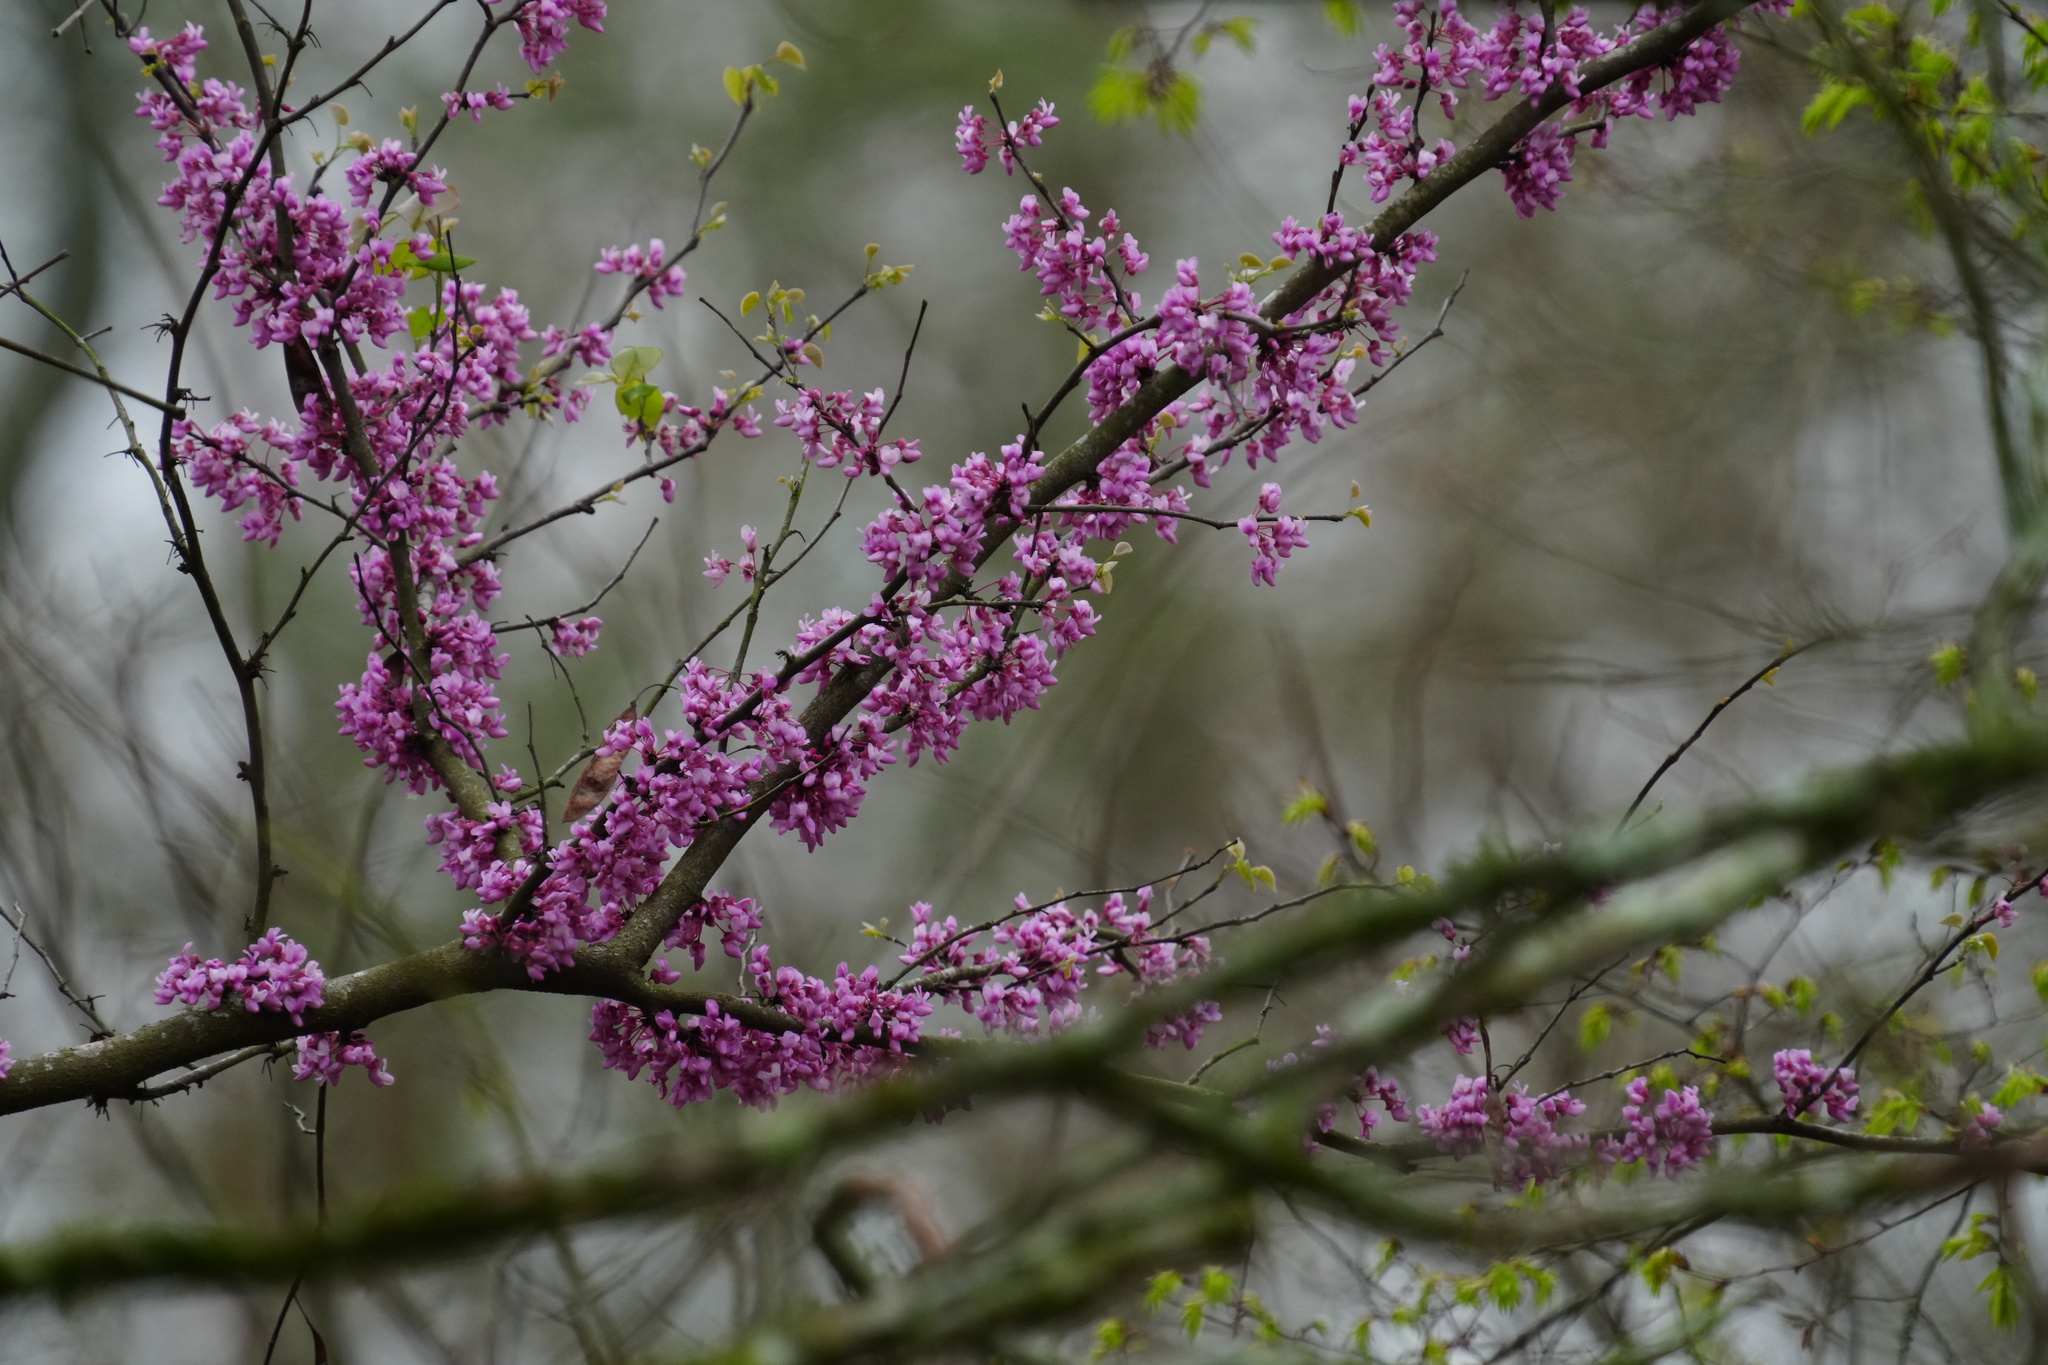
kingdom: Plantae
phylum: Tracheophyta
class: Magnoliopsida
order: Fabales
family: Fabaceae
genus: Cercis
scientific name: Cercis canadensis
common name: Eastern redbud
